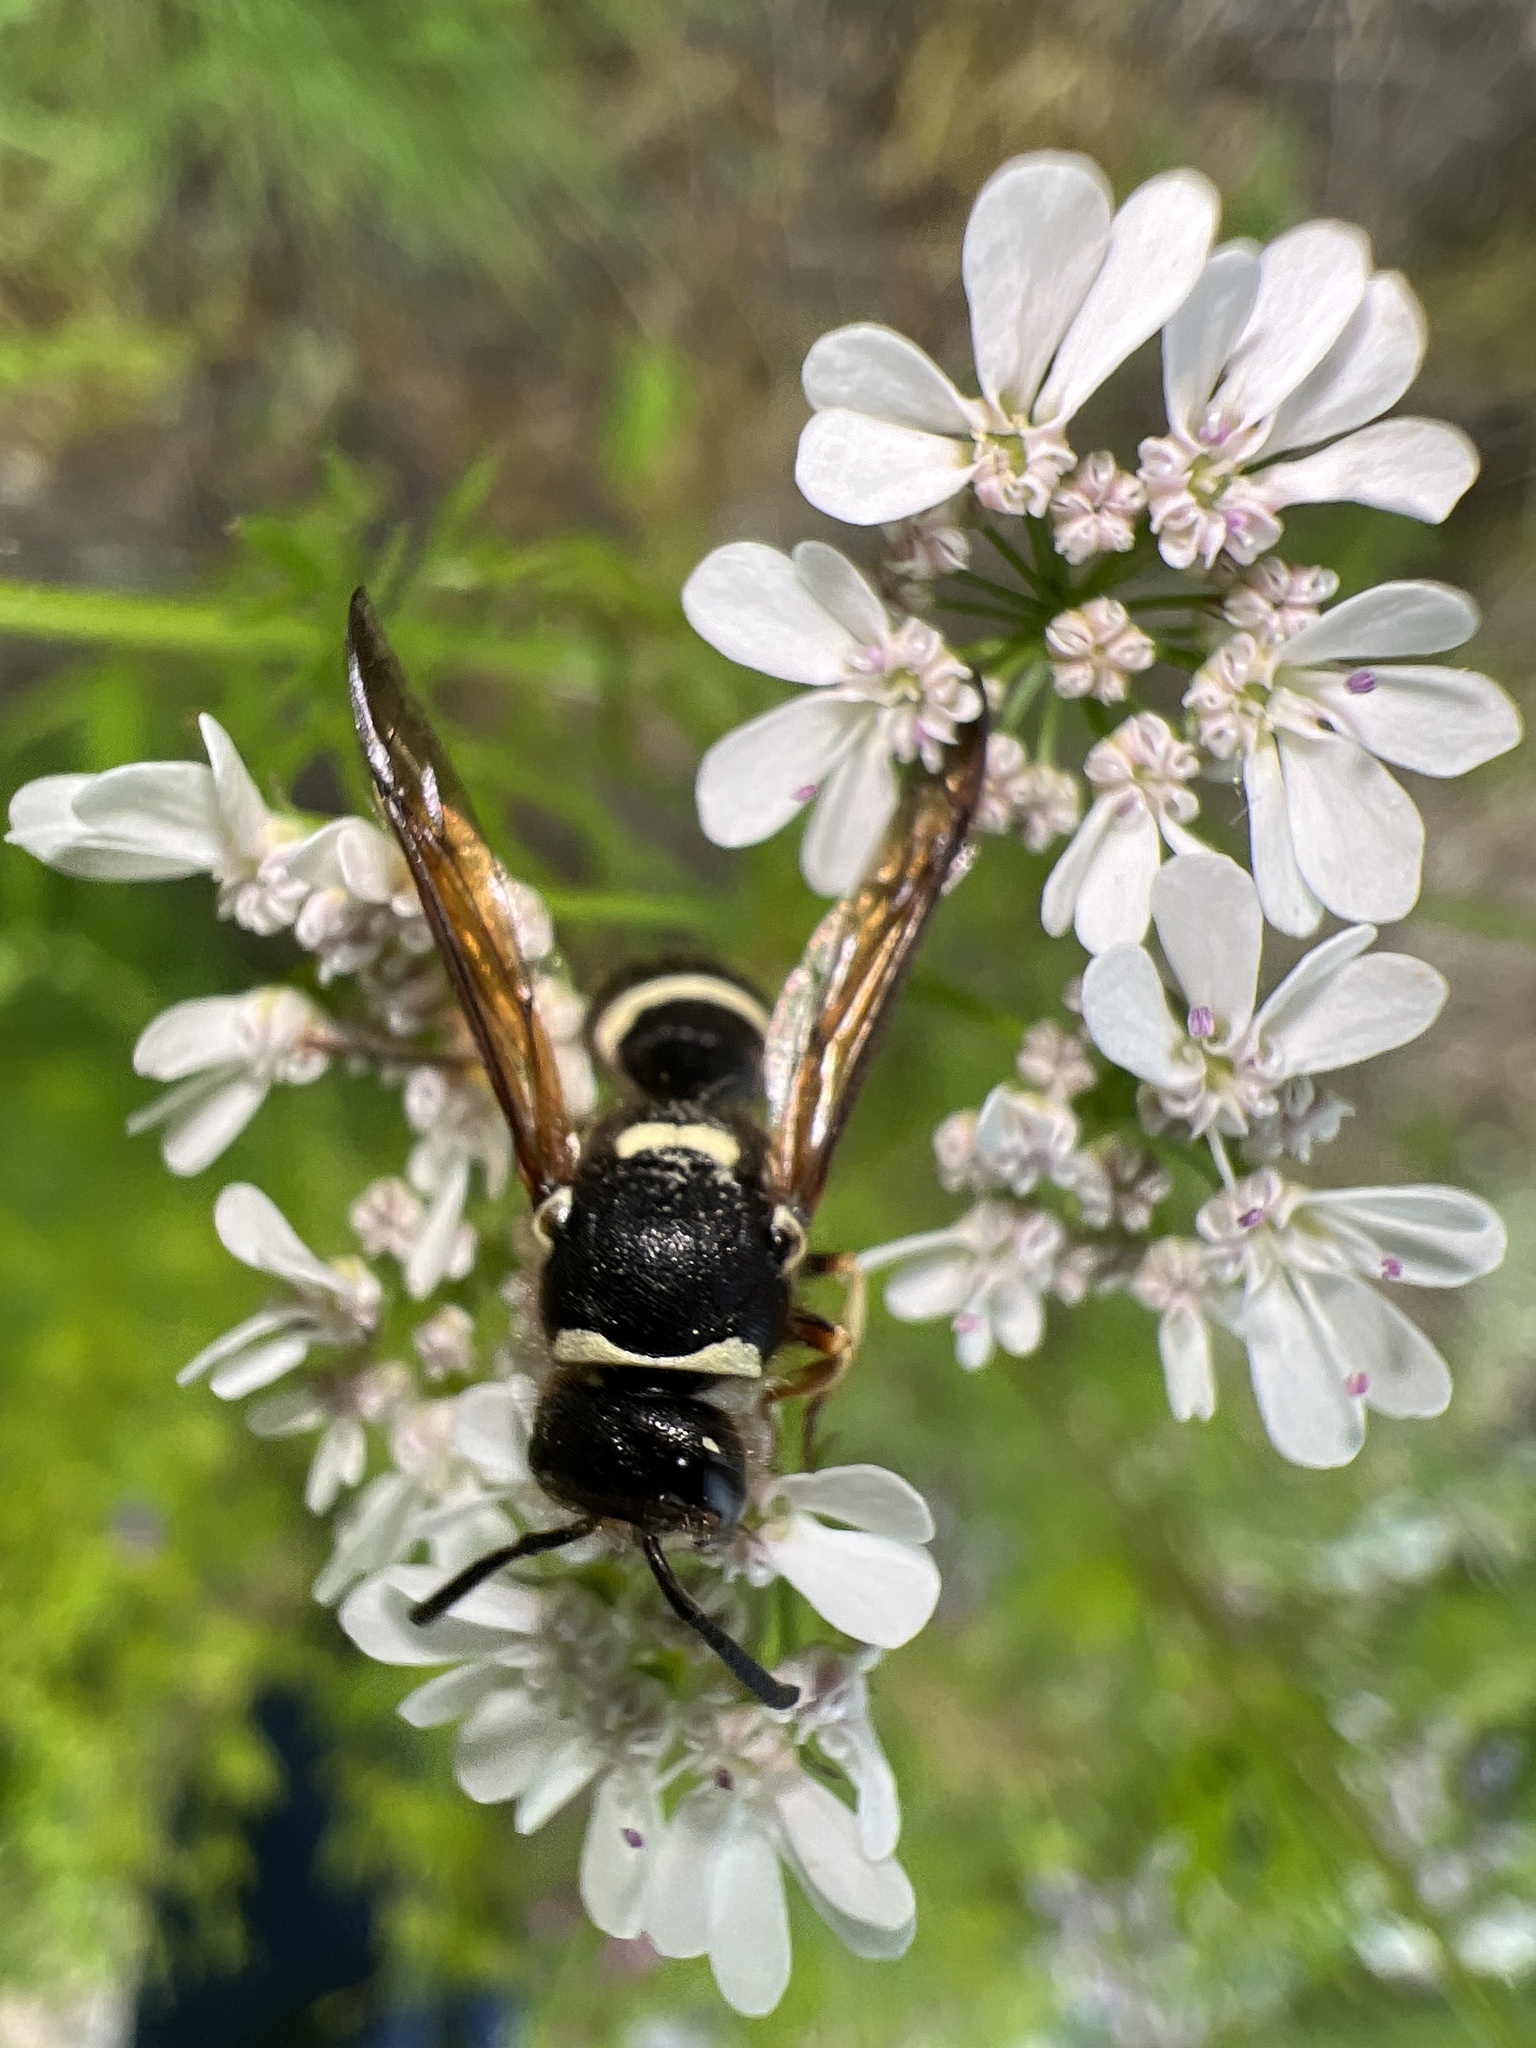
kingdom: Animalia
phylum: Arthropoda
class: Insecta
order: Hymenoptera
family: Vespidae
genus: Ancistrocerus
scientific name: Ancistrocerus waldenii
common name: Walden’s potter wasp
